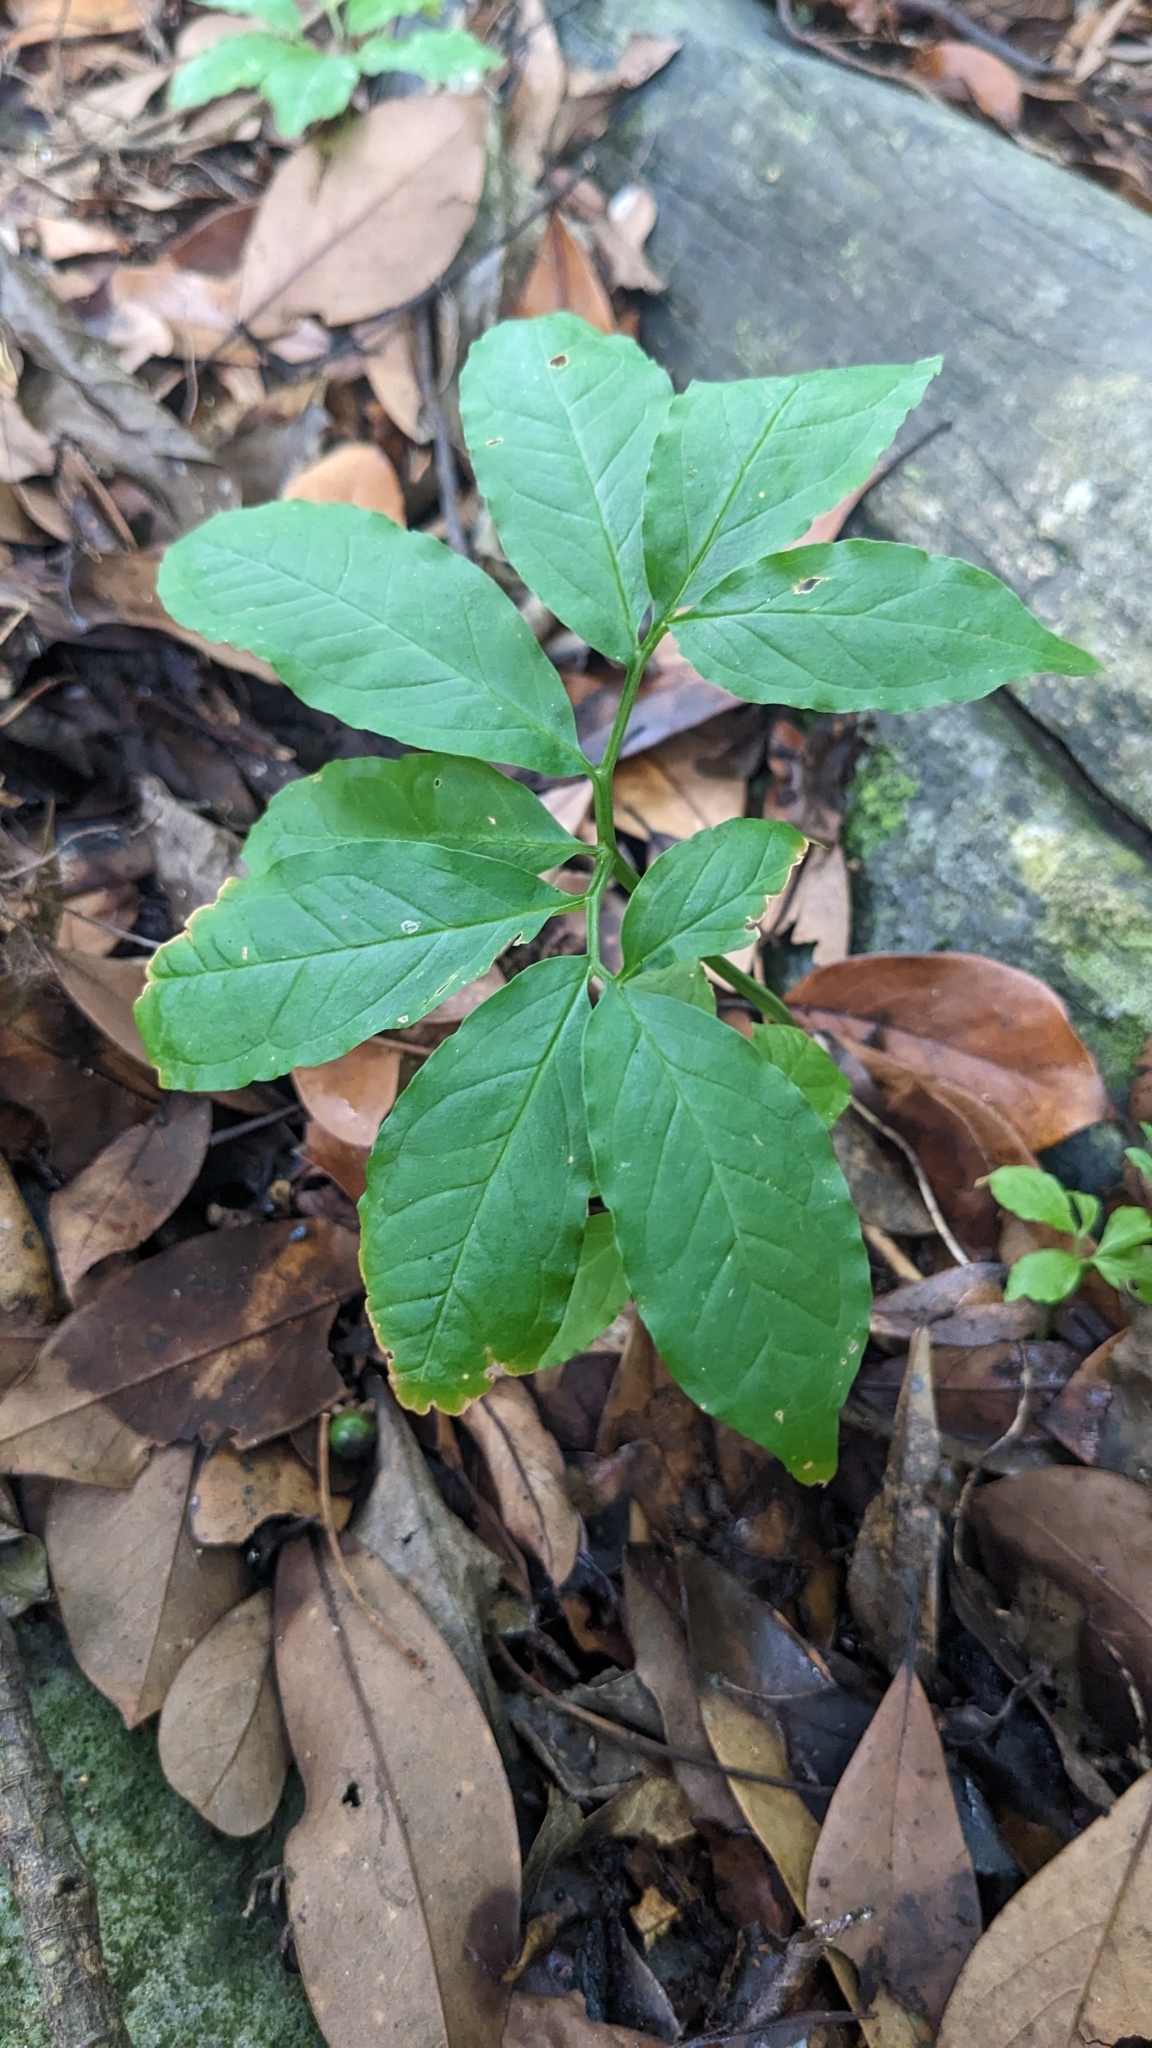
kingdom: Plantae
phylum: Tracheophyta
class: Liliopsida
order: Alismatales
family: Araceae
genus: Arisaema
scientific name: Arisaema heterophyllum
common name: Dancing crane cobra lily
